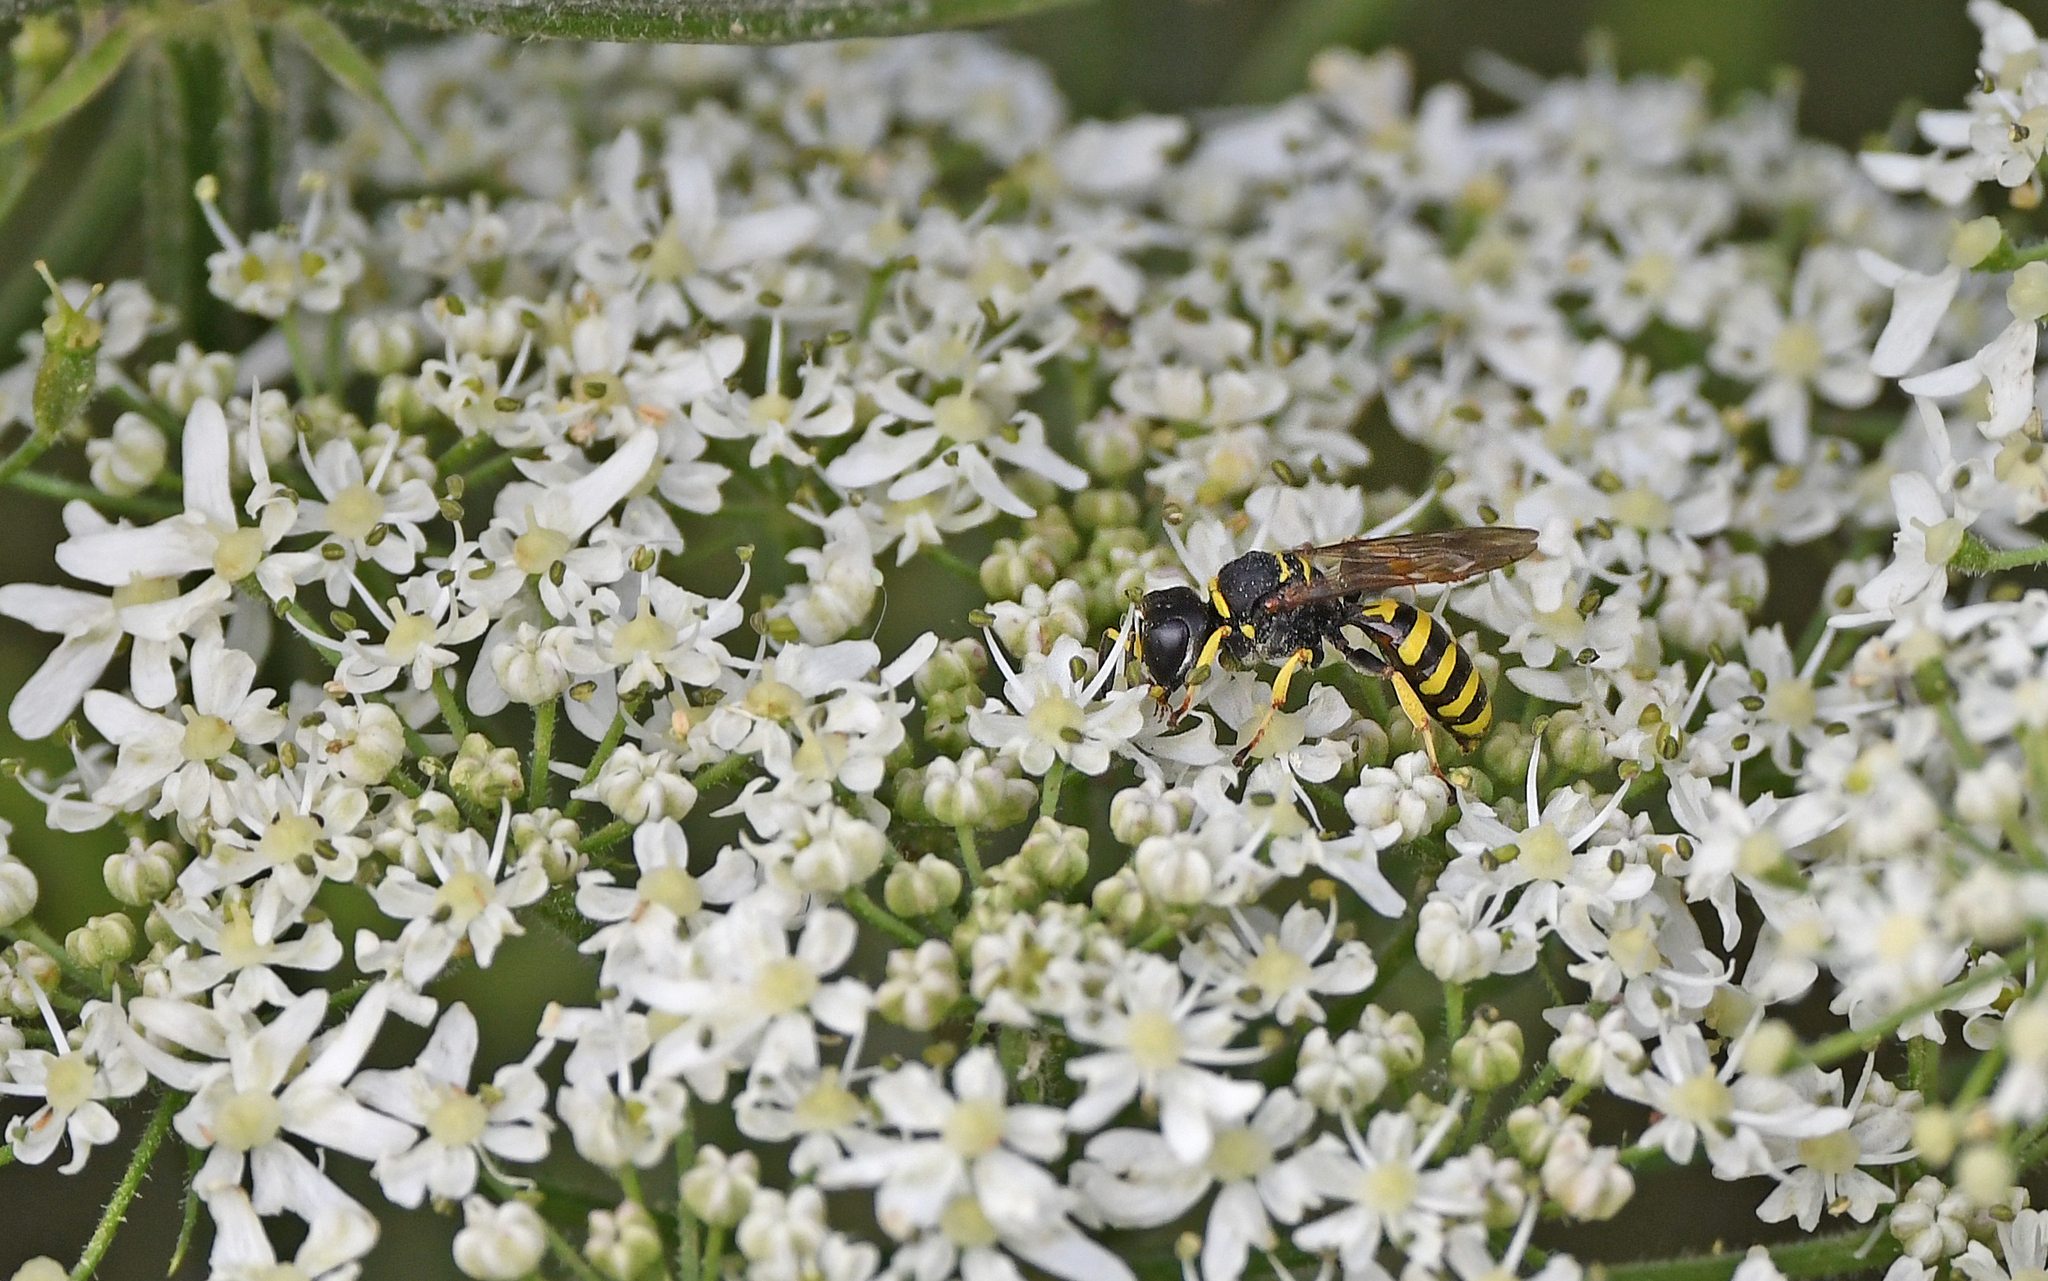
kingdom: Animalia
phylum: Arthropoda
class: Insecta
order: Hymenoptera
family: Crabronidae
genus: Philanthus
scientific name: Philanthus triangulum
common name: Bee wolf
